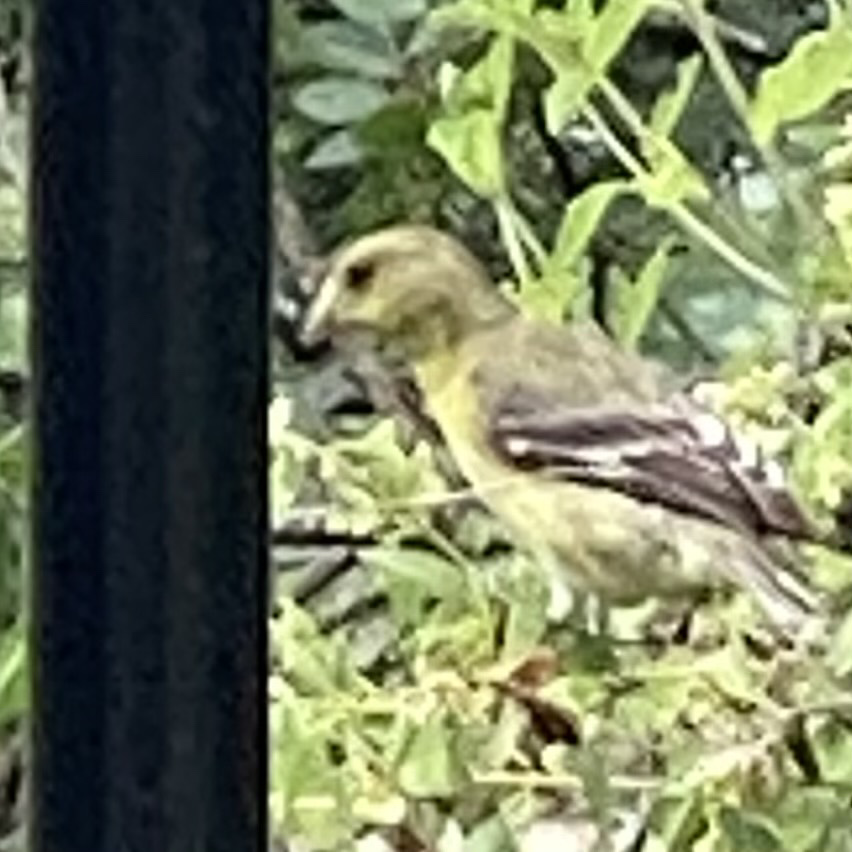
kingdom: Animalia
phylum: Chordata
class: Aves
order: Passeriformes
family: Fringillidae
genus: Spinus
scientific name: Spinus psaltria
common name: Lesser goldfinch
